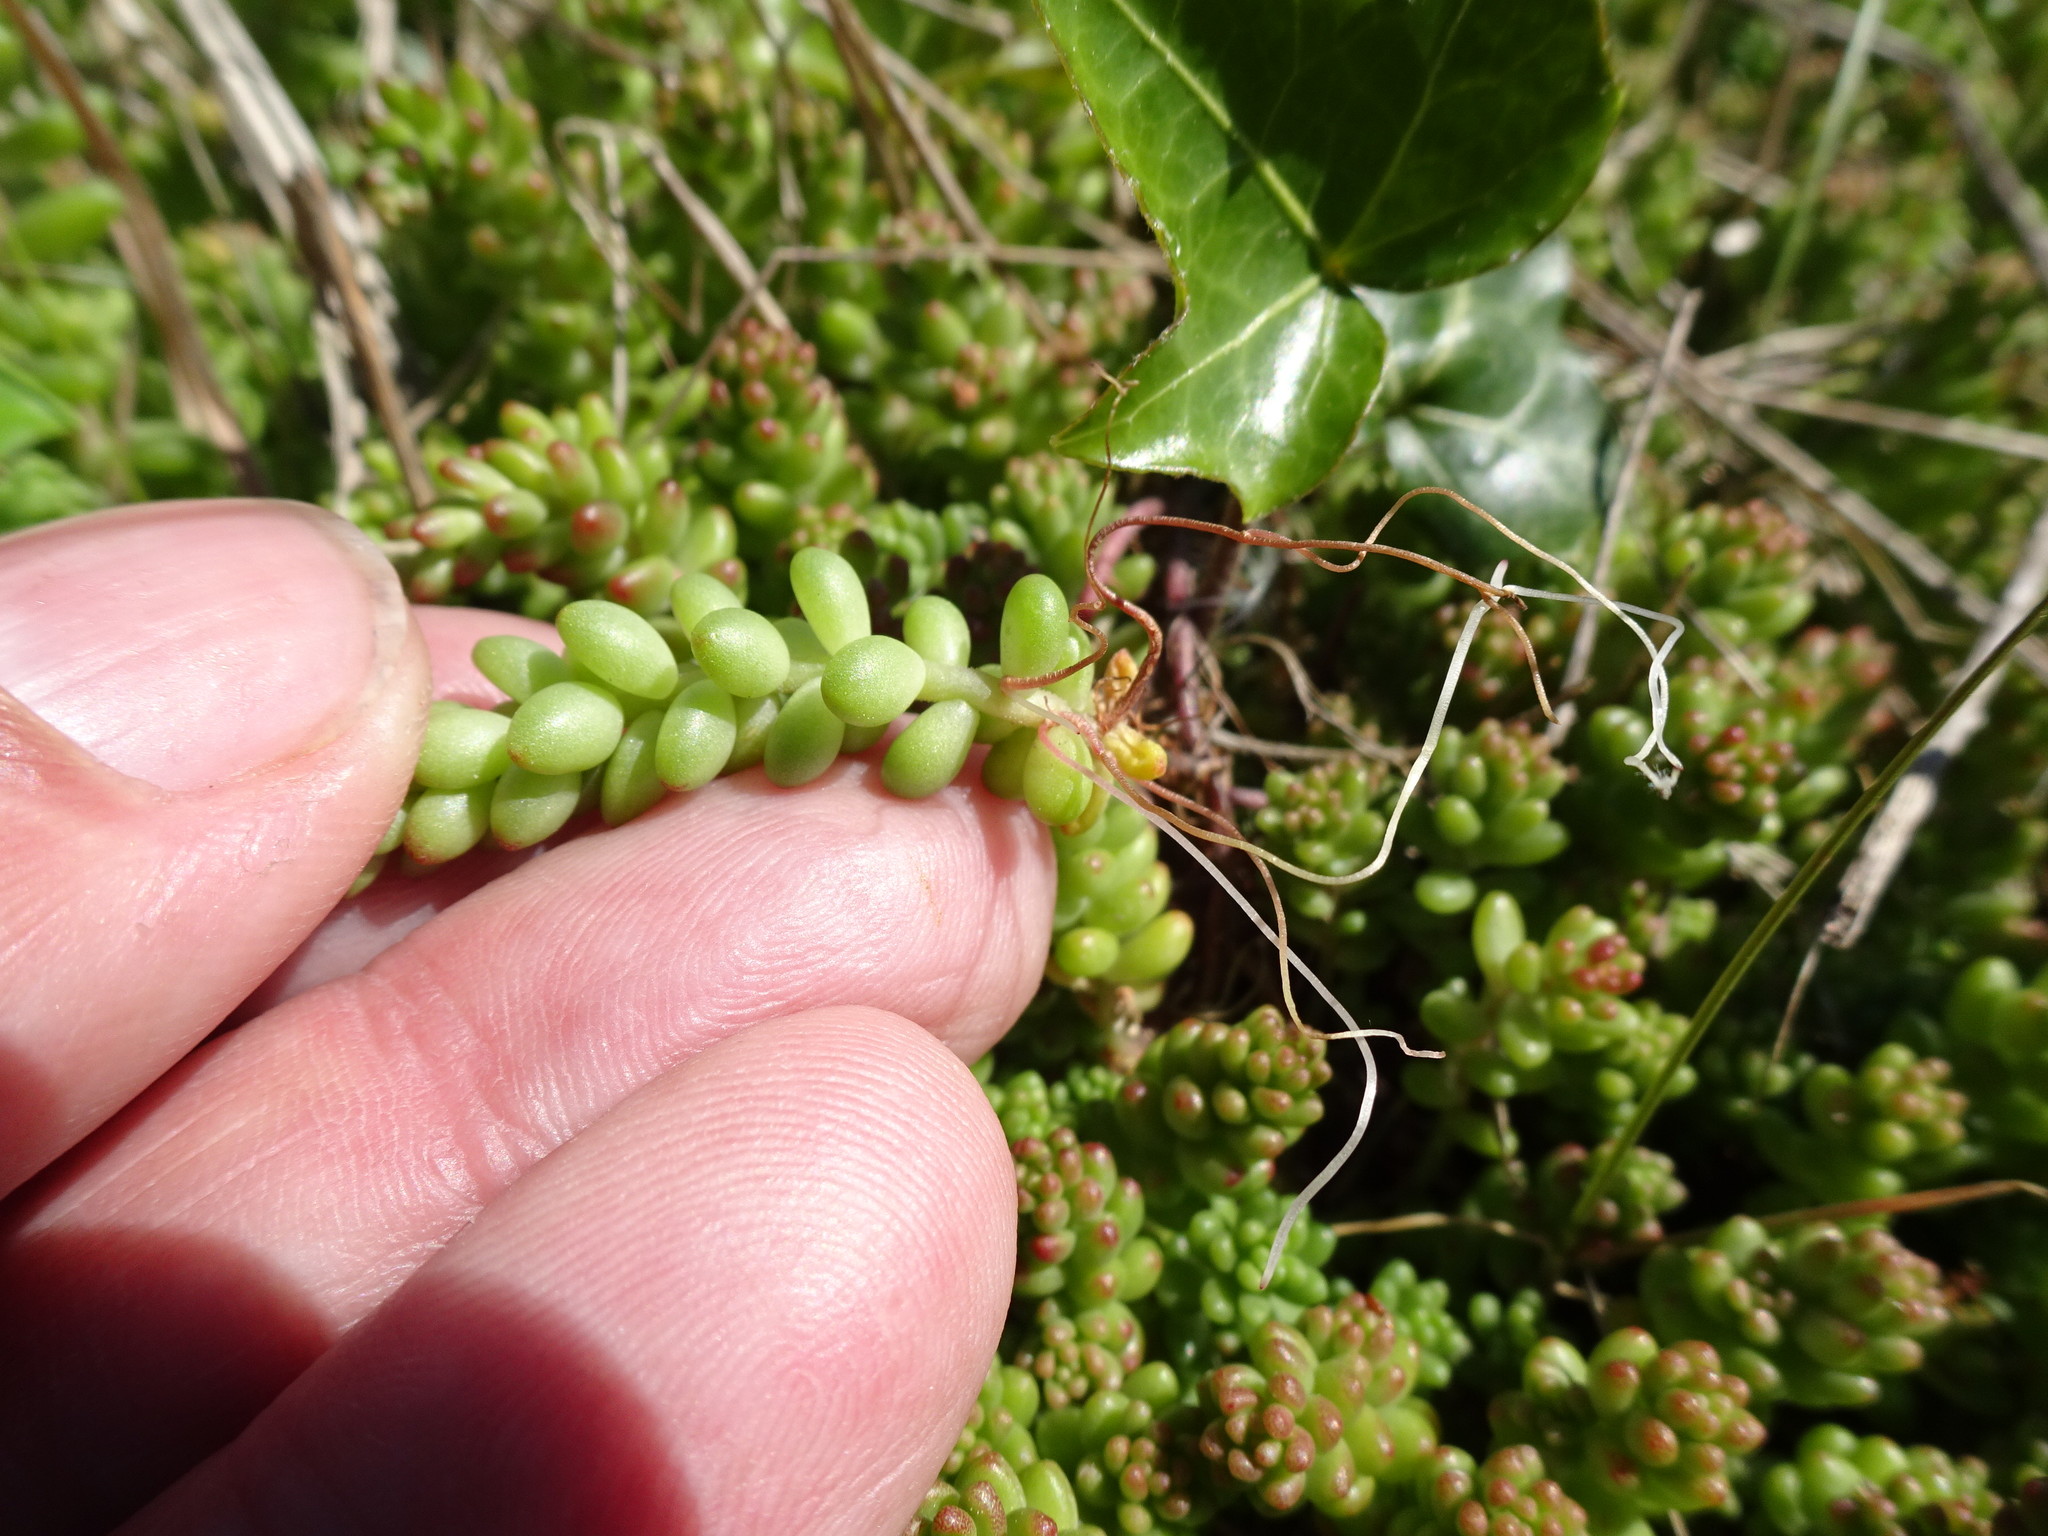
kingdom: Plantae
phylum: Tracheophyta
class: Magnoliopsida
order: Saxifragales
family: Crassulaceae
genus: Sedum
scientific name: Sedum album
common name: White stonecrop
